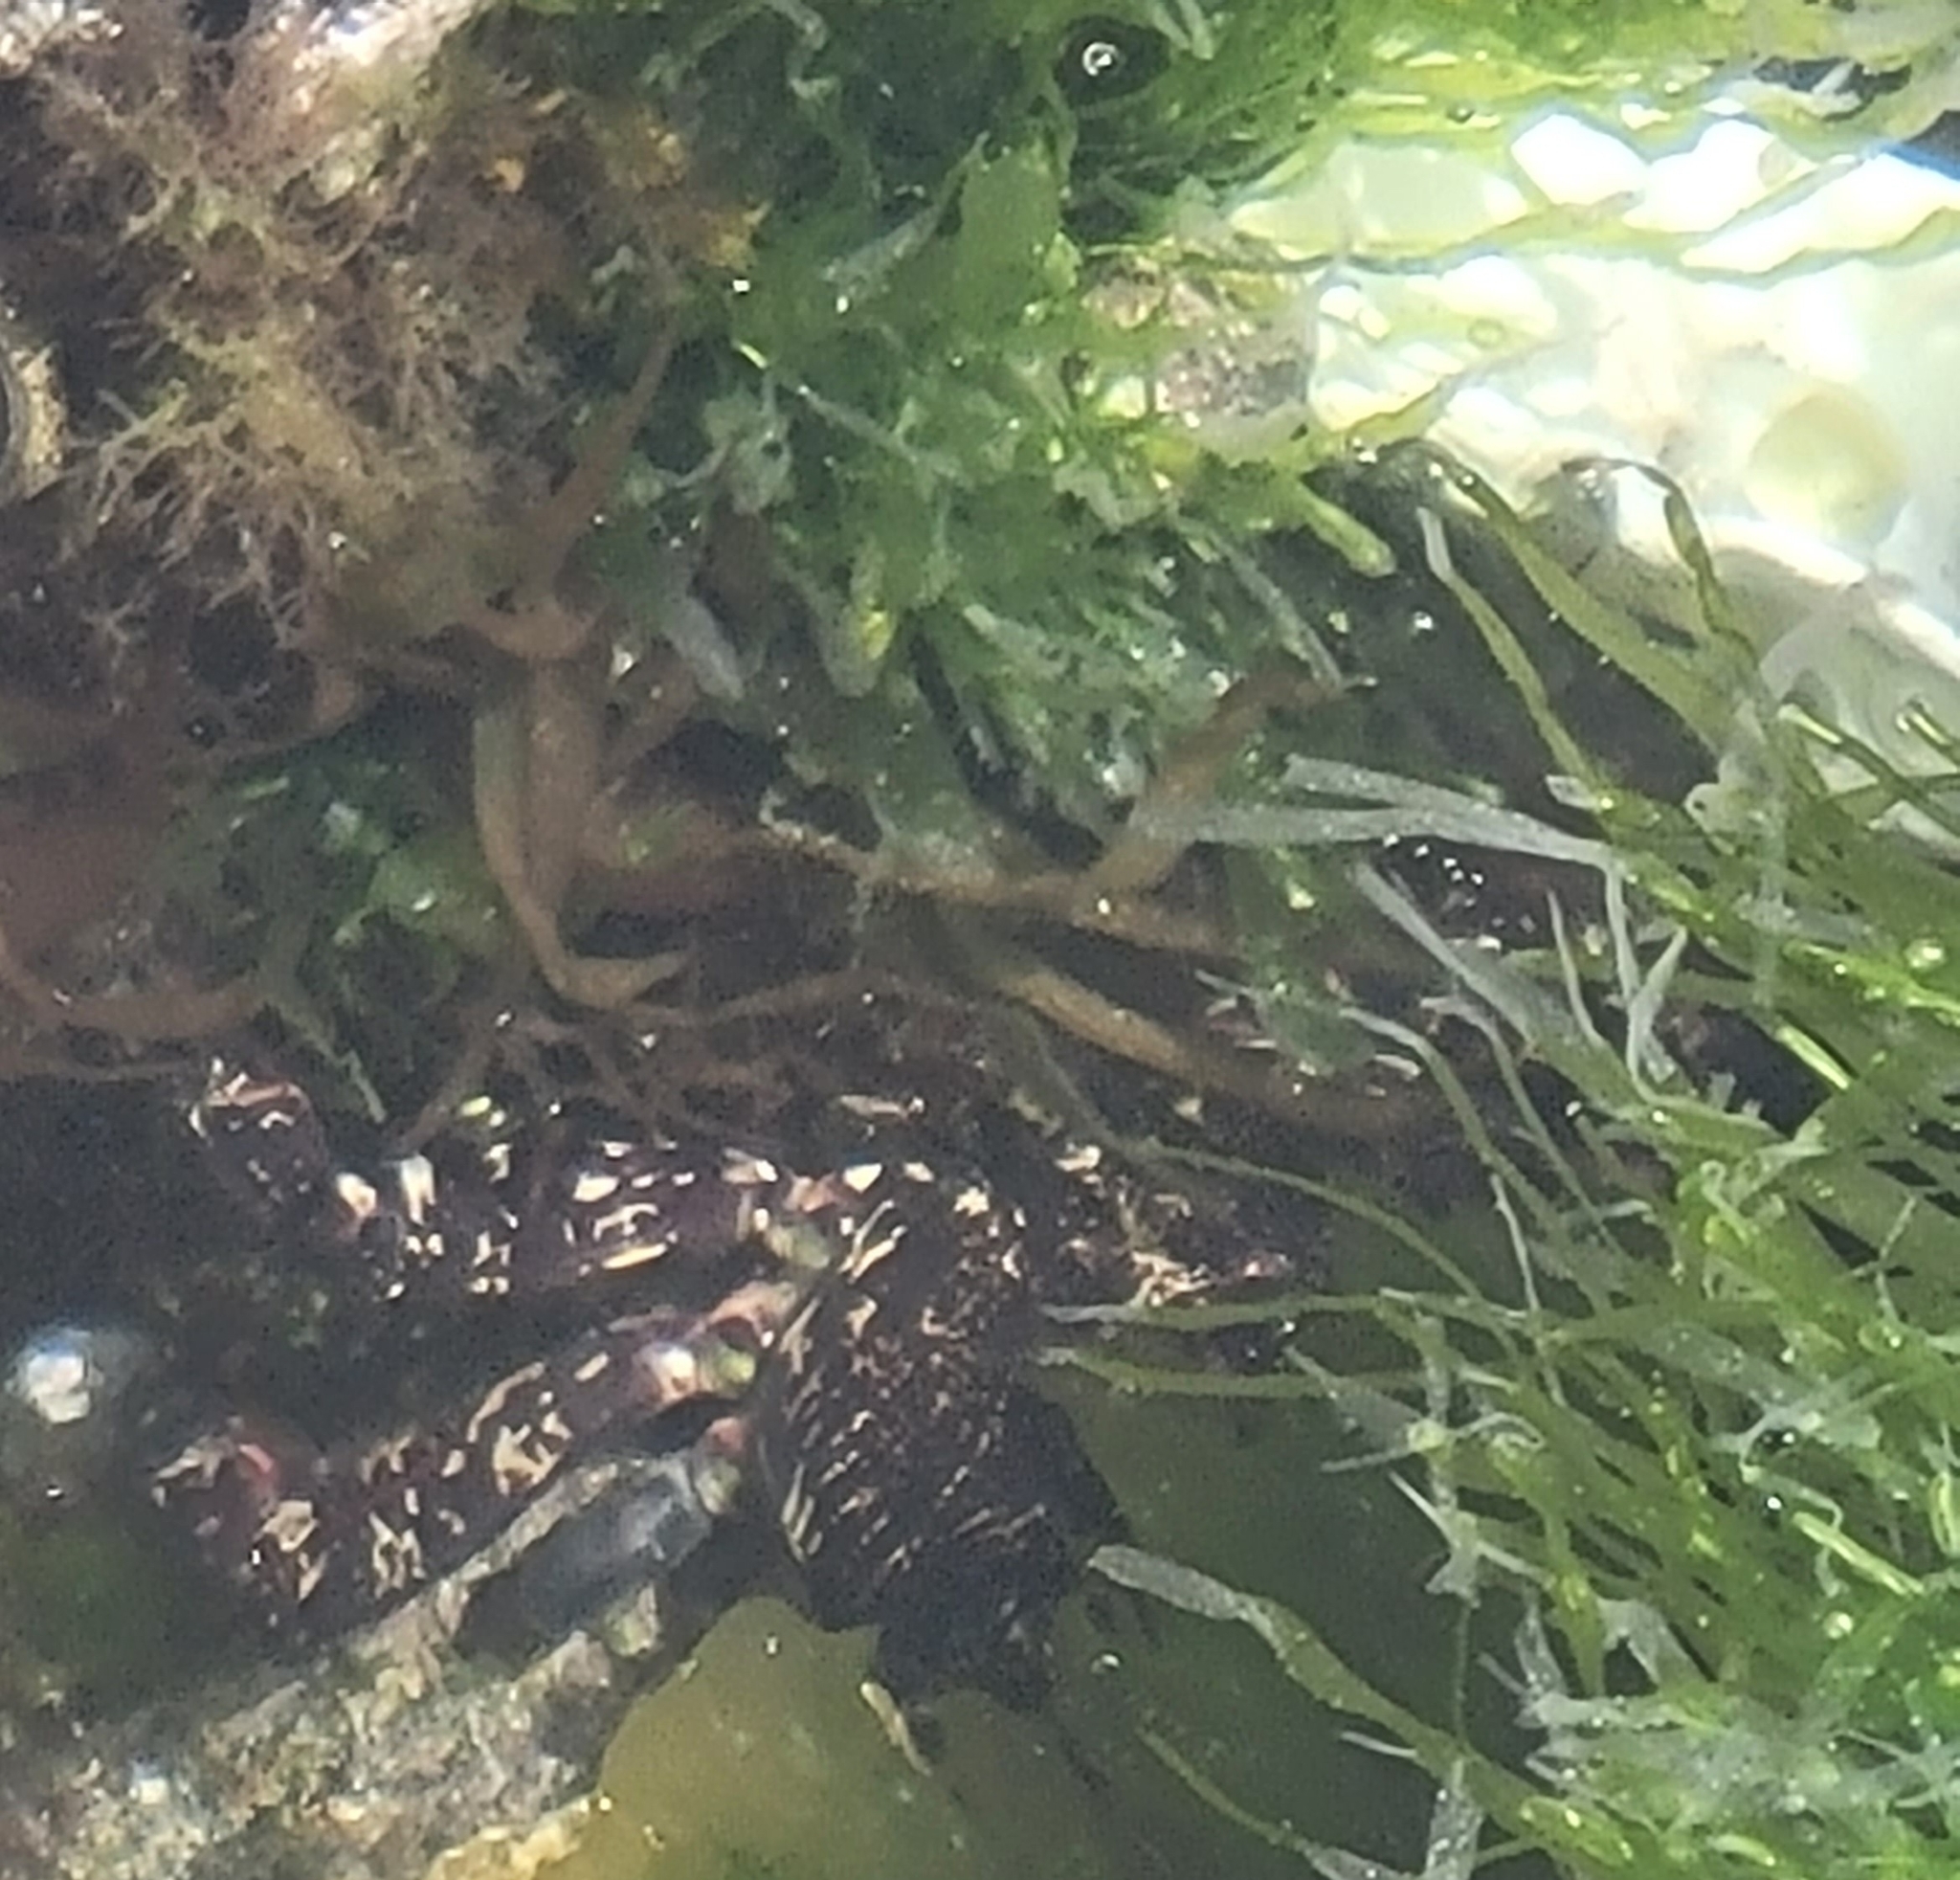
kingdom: Animalia
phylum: Arthropoda
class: Malacostraca
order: Decapoda
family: Grapsidae
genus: Pachygrapsus
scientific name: Pachygrapsus marmoratus
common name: Marbled rock crab
